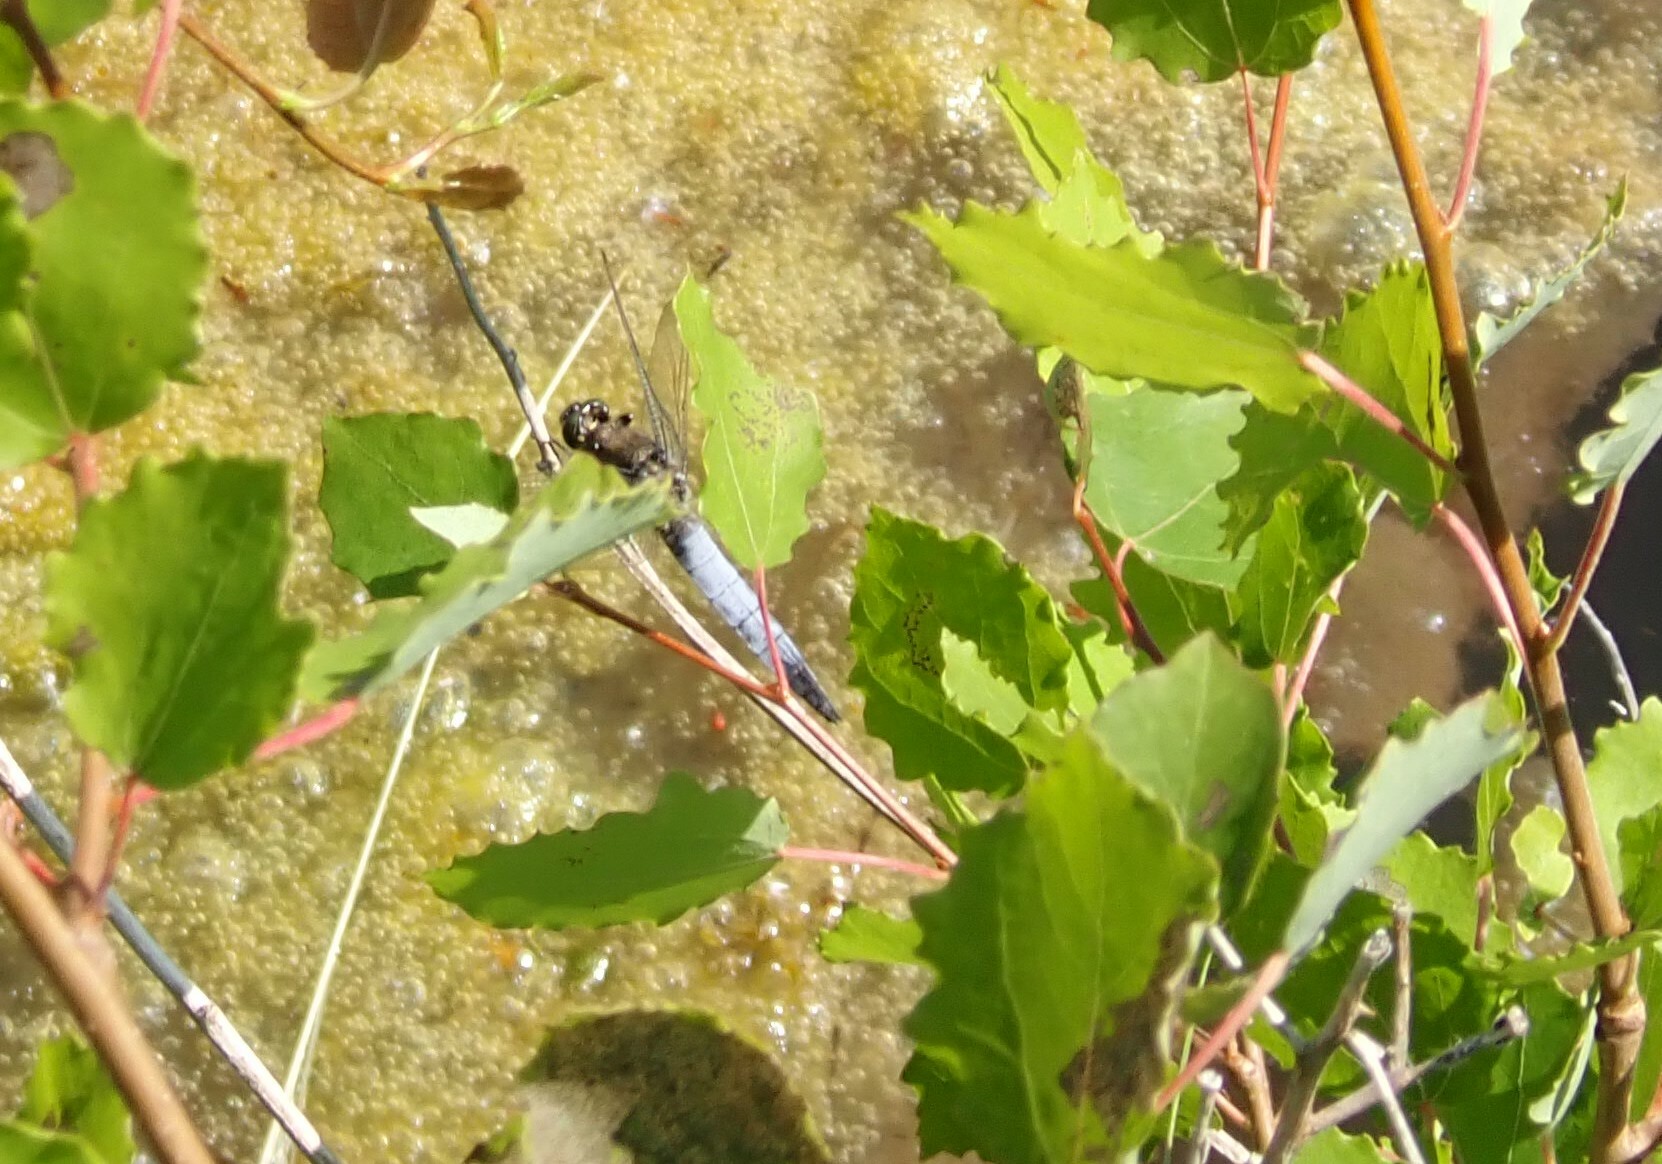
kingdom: Animalia
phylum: Arthropoda
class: Insecta
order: Odonata
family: Libellulidae
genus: Orthetrum
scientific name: Orthetrum cancellatum
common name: Black-tailed skimmer
